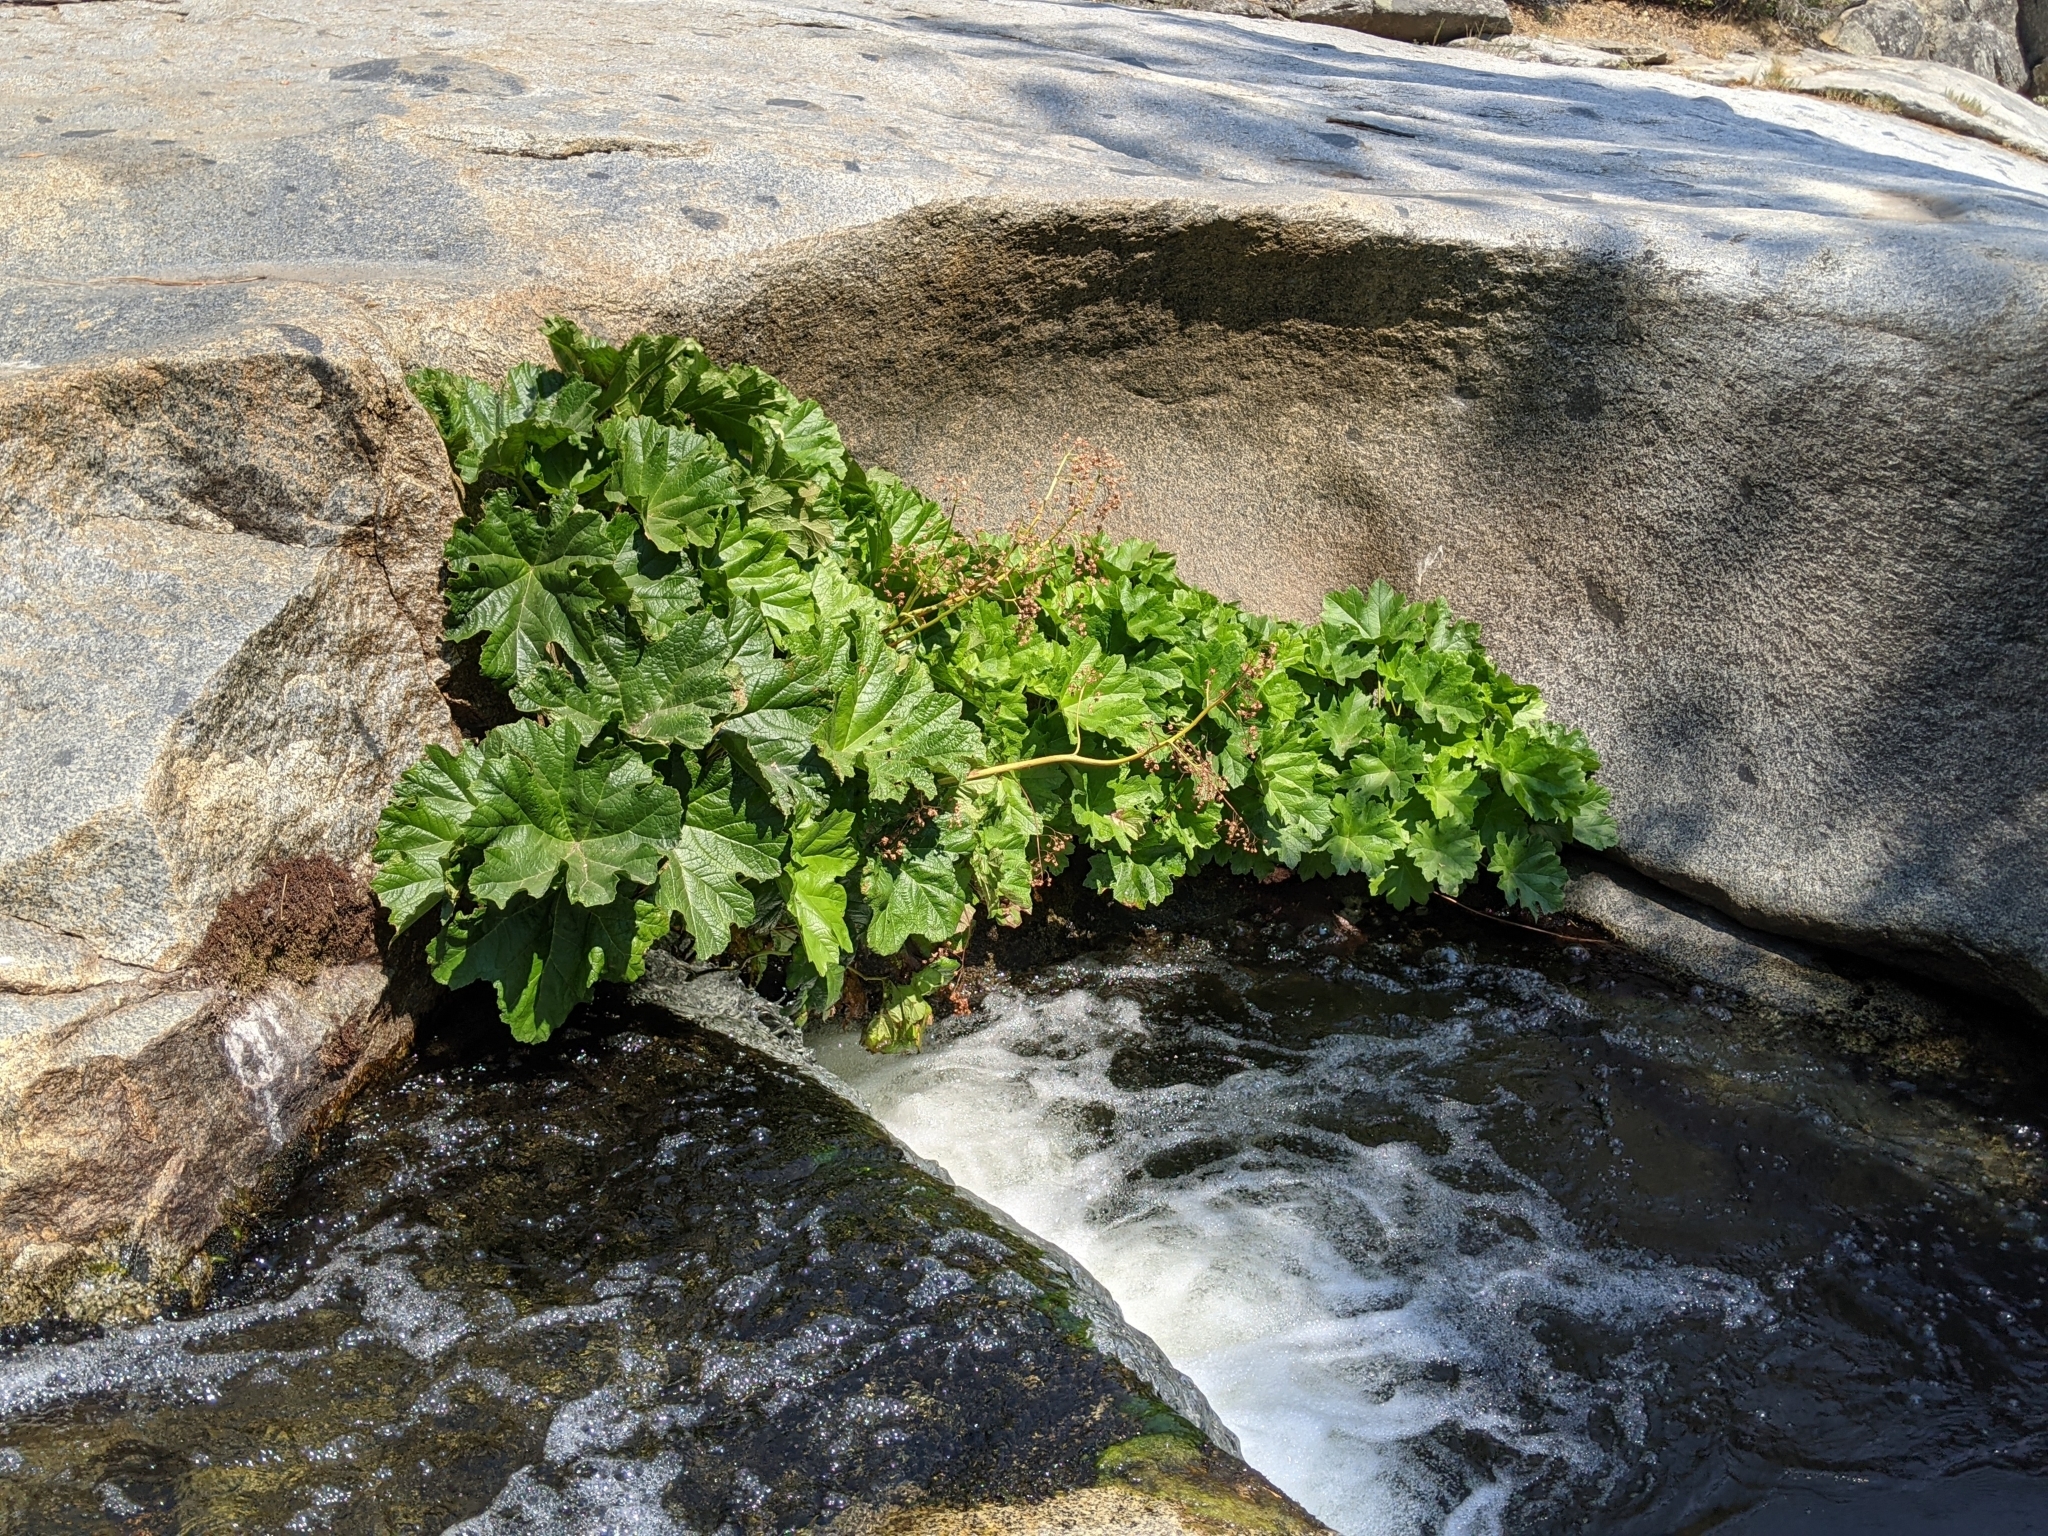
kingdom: Plantae
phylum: Tracheophyta
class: Magnoliopsida
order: Saxifragales
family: Saxifragaceae
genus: Darmera
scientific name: Darmera peltata
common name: Indian-rhubarb
